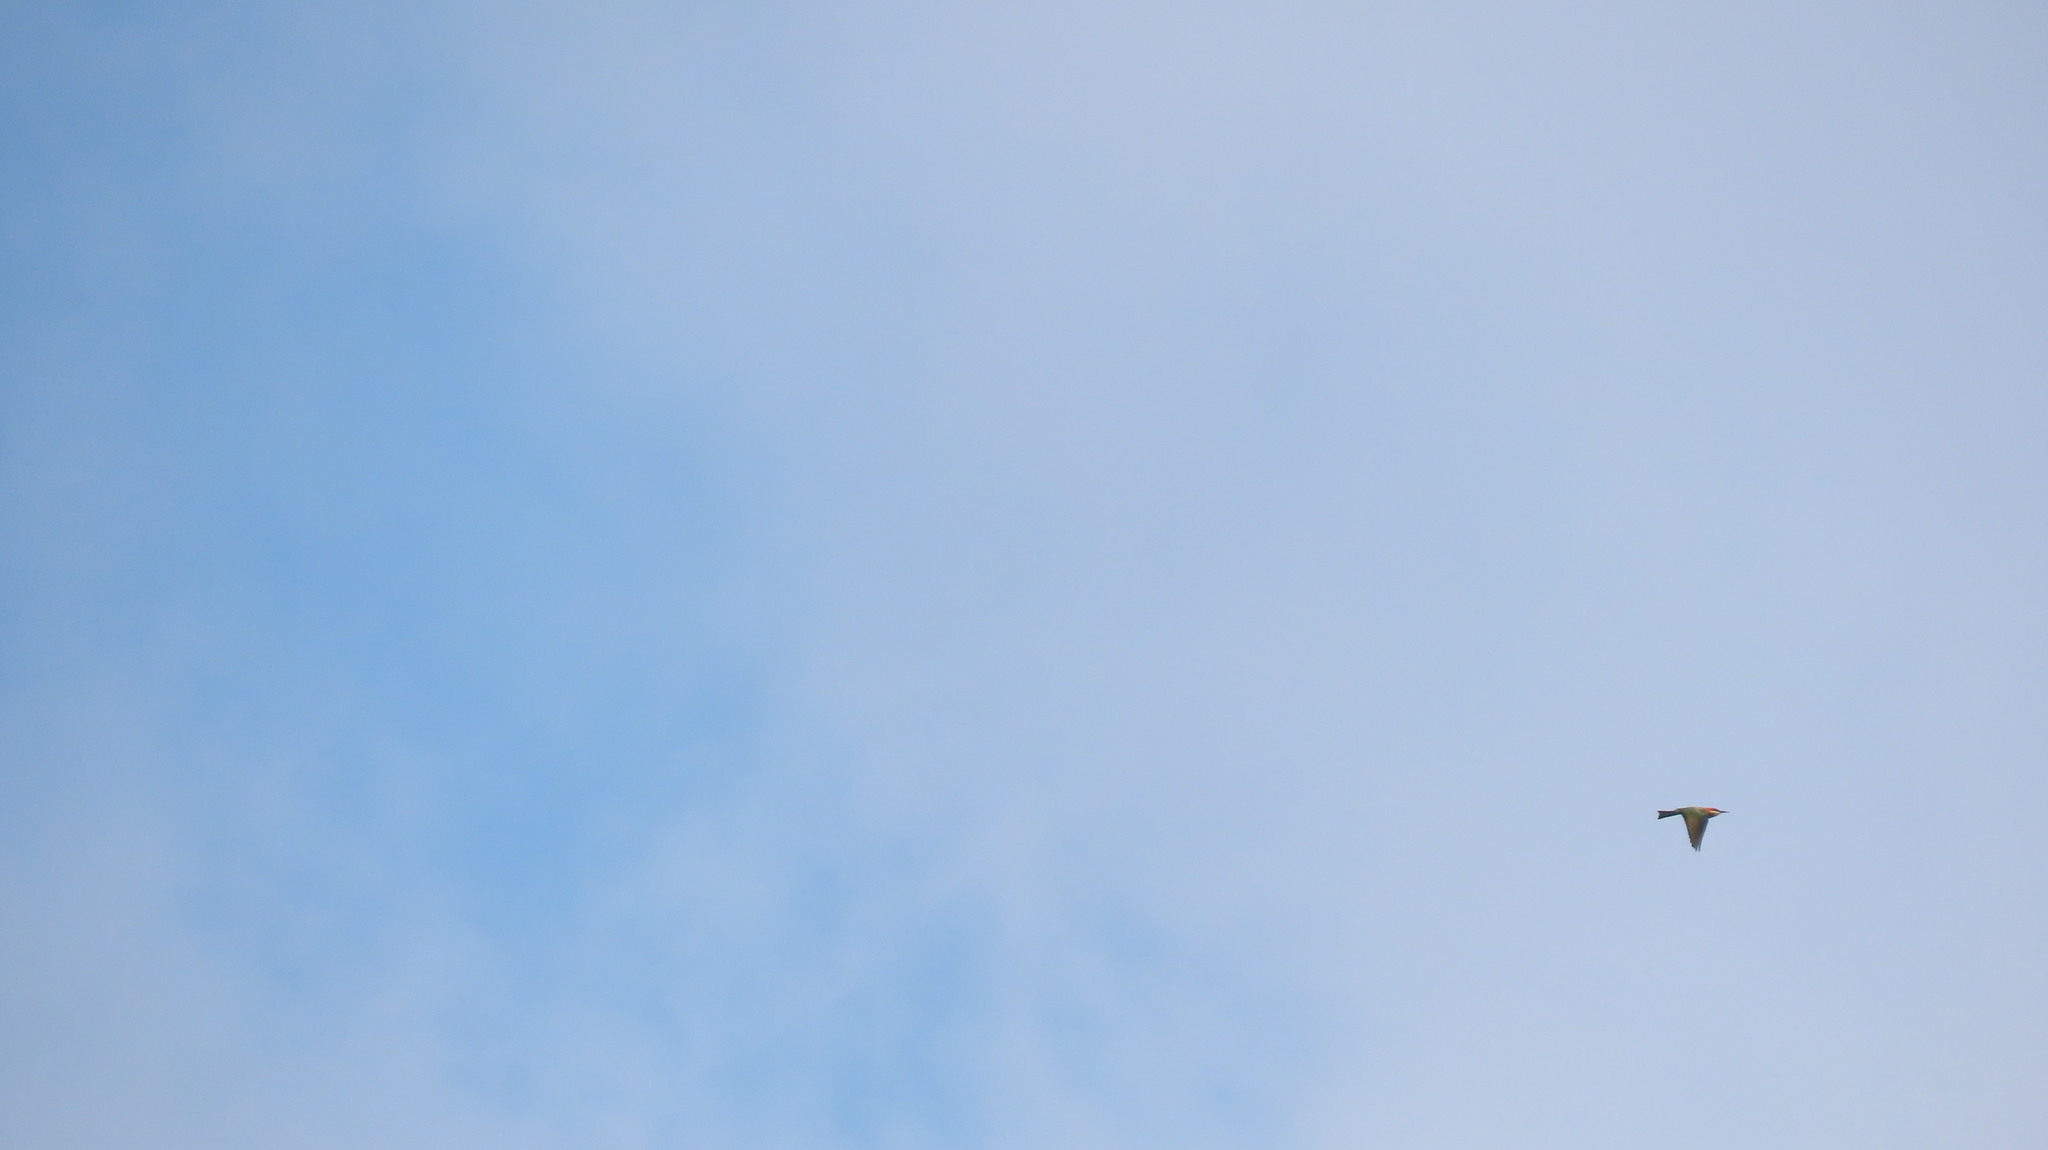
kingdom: Animalia
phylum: Chordata
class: Aves
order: Coraciiformes
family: Meropidae
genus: Merops
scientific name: Merops leschenaulti
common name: Chestnut-headed bee-eater
